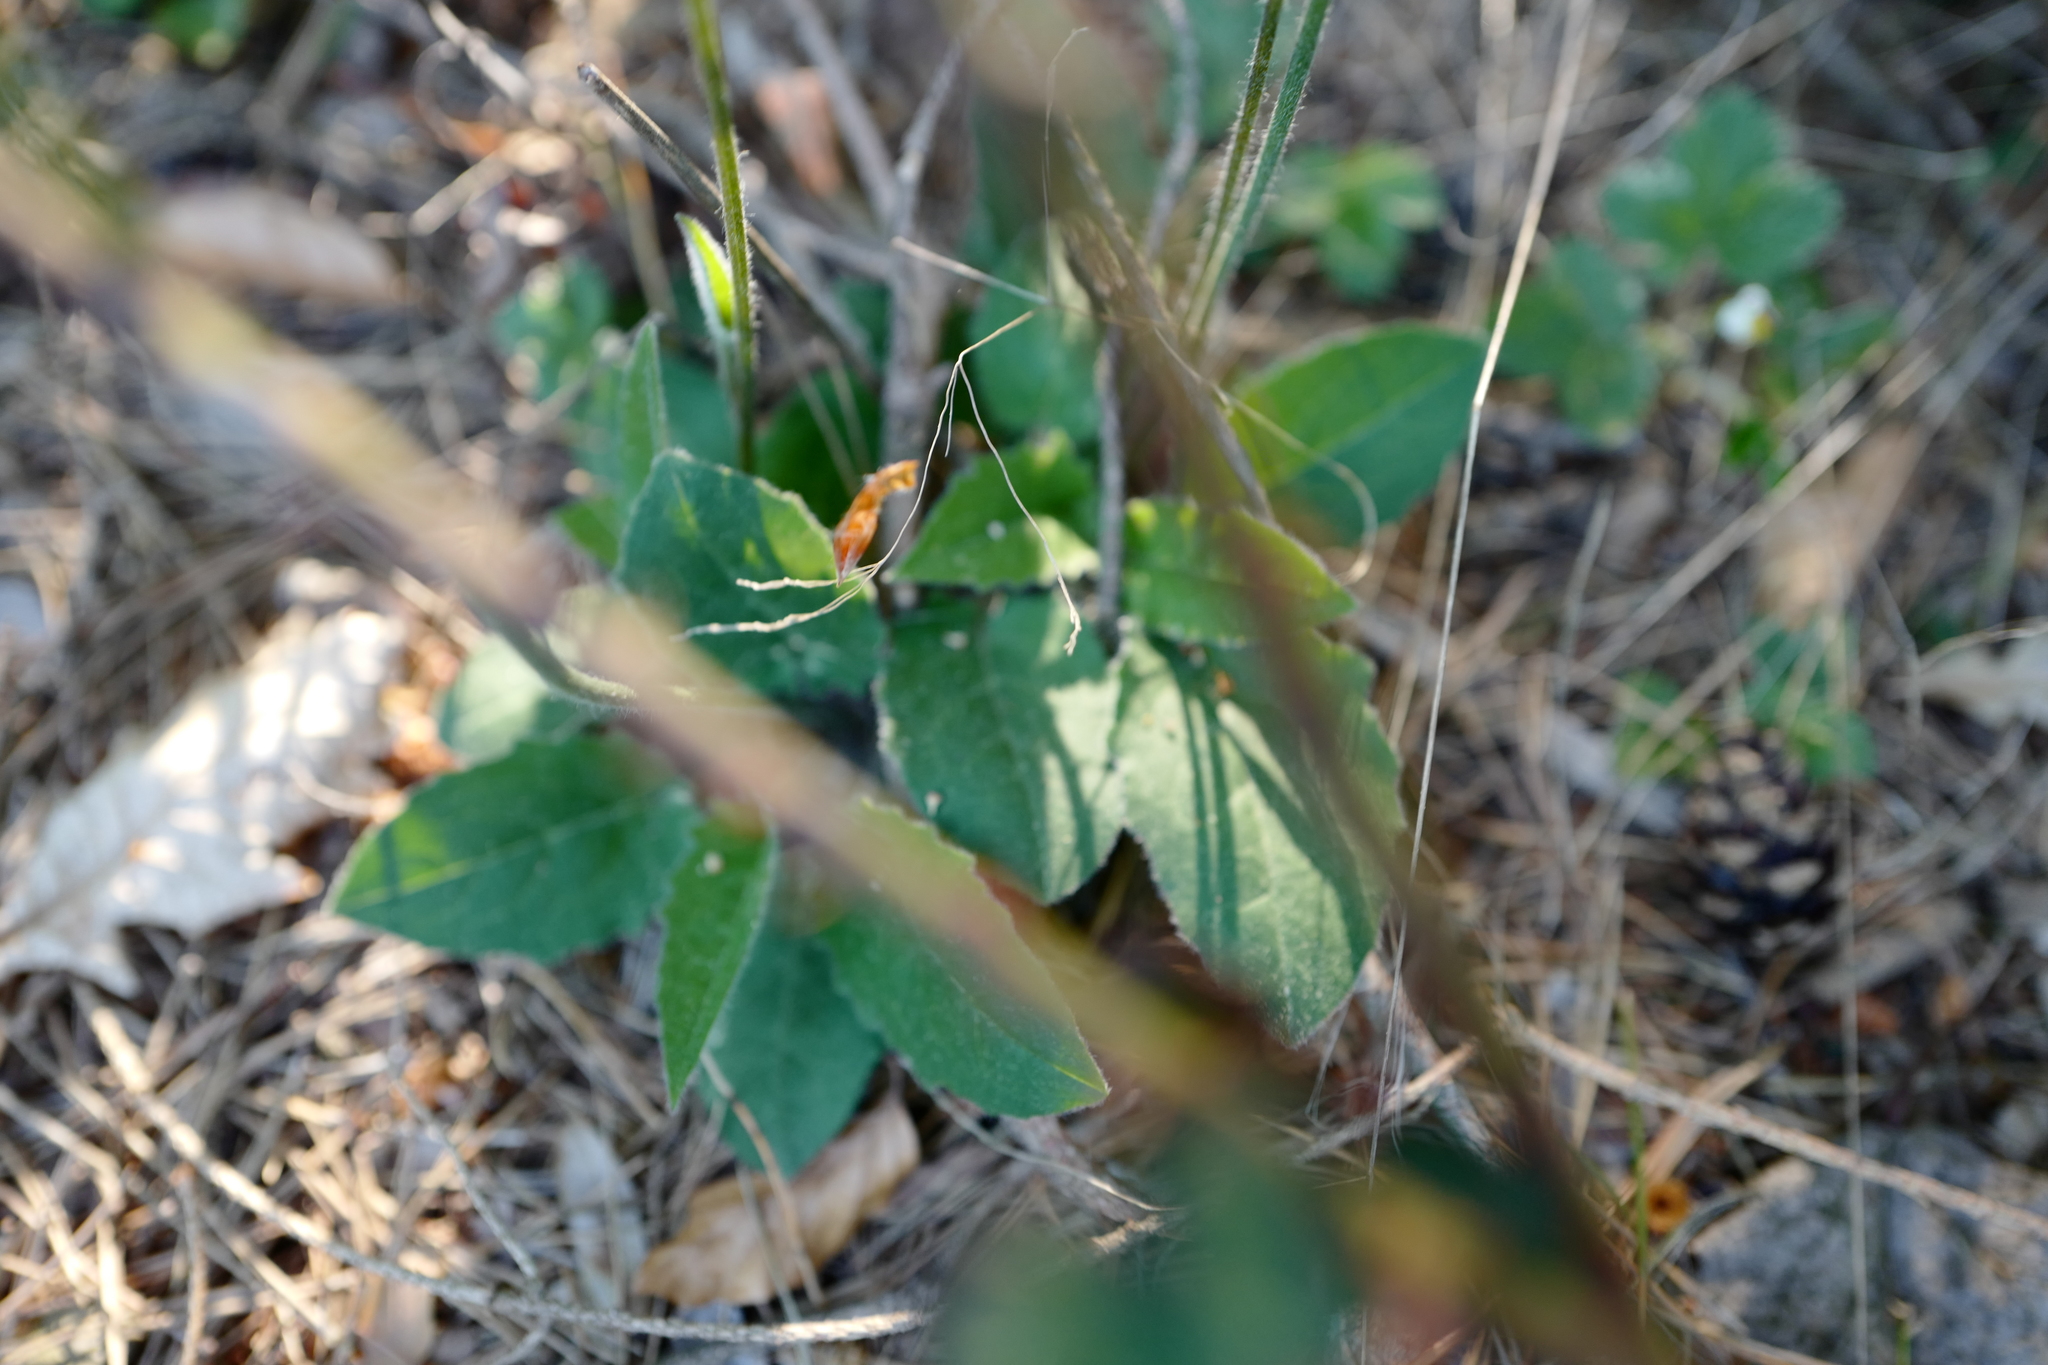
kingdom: Plantae
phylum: Tracheophyta
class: Magnoliopsida
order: Asterales
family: Asteraceae
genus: Hieracium
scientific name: Hieracium murorum
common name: Wall hawkweed
